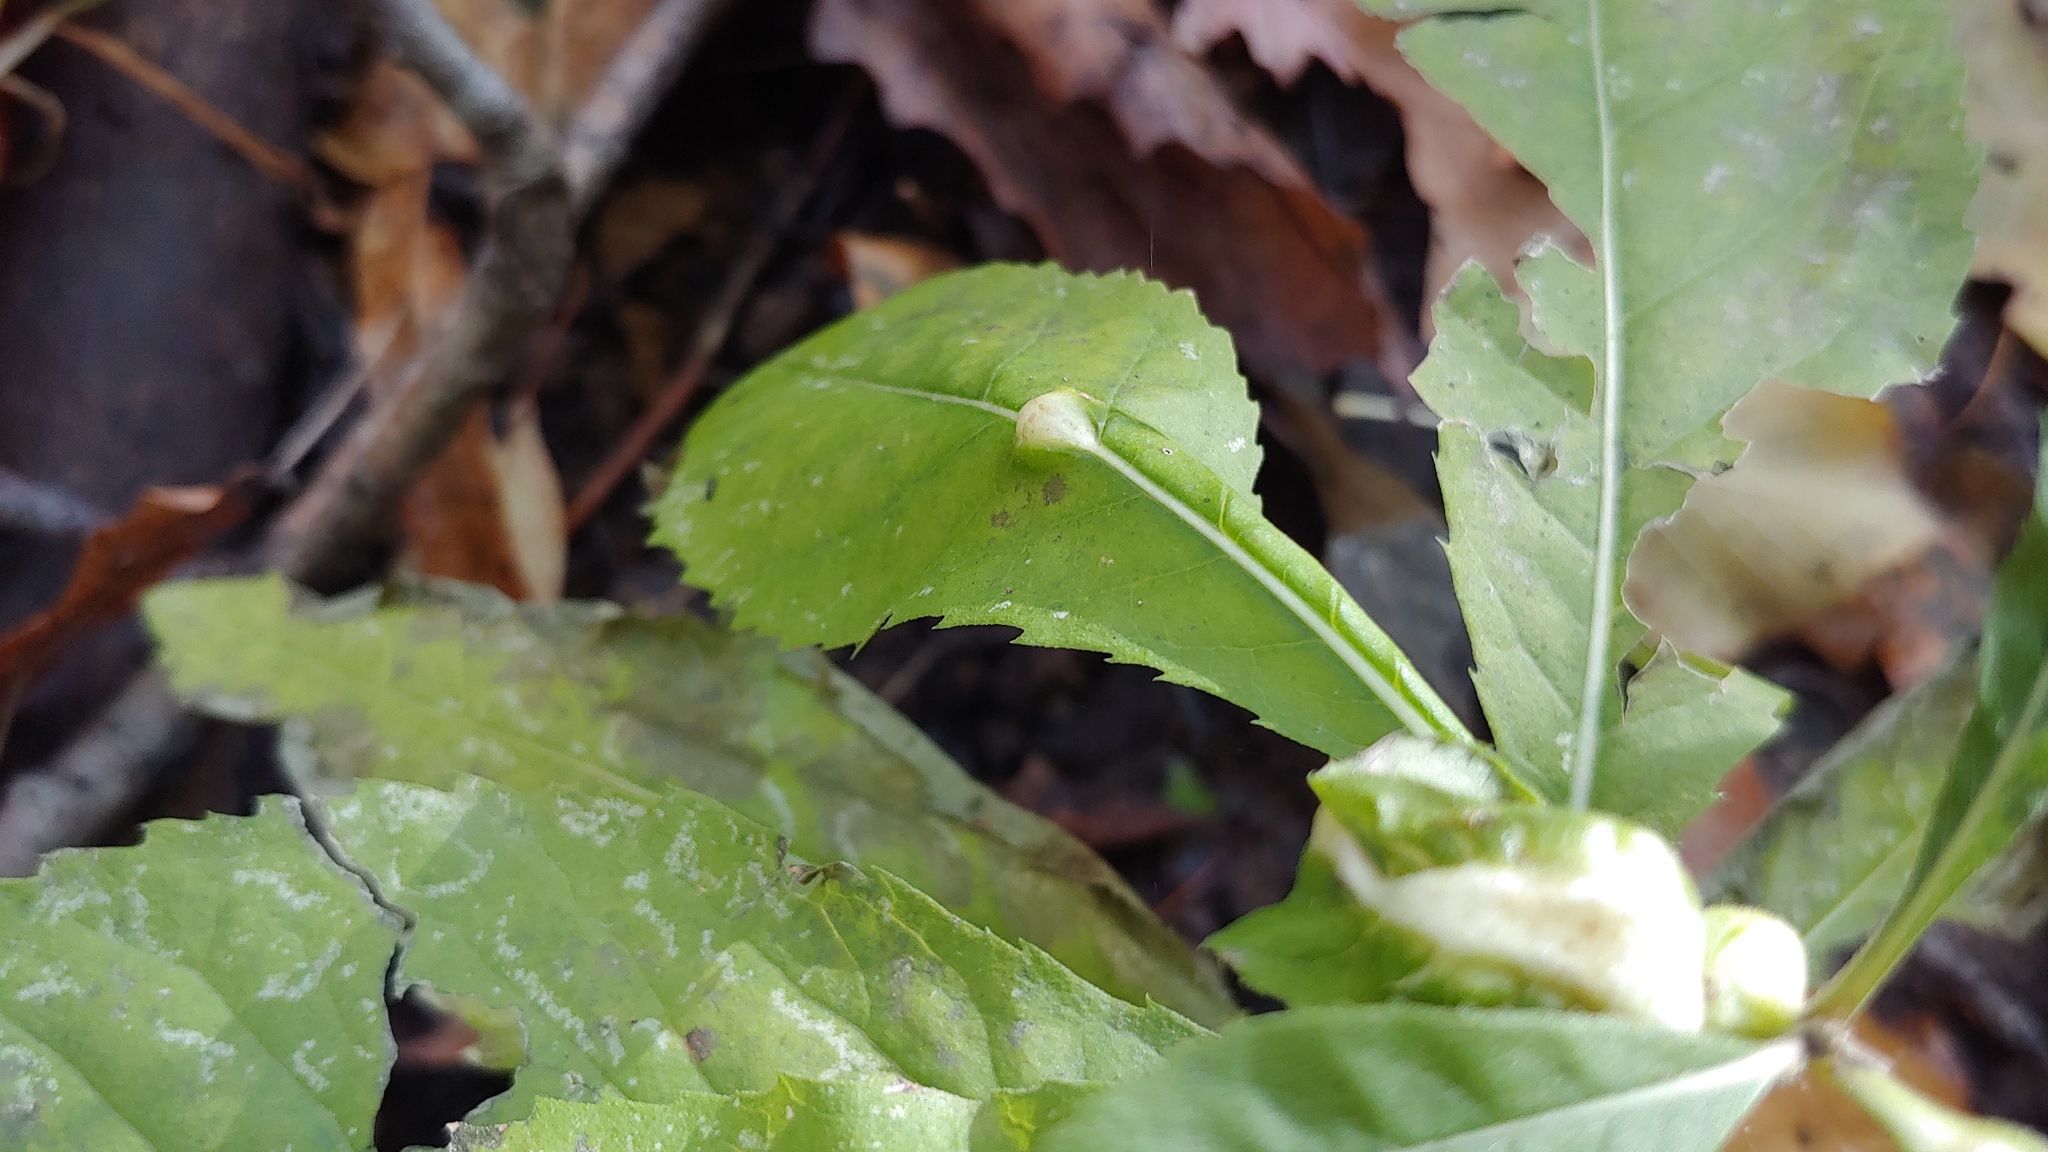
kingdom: Animalia
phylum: Arthropoda
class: Insecta
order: Diptera
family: Cecidomyiidae
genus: Neolasioptera
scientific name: Neolasioptera verbesinae
